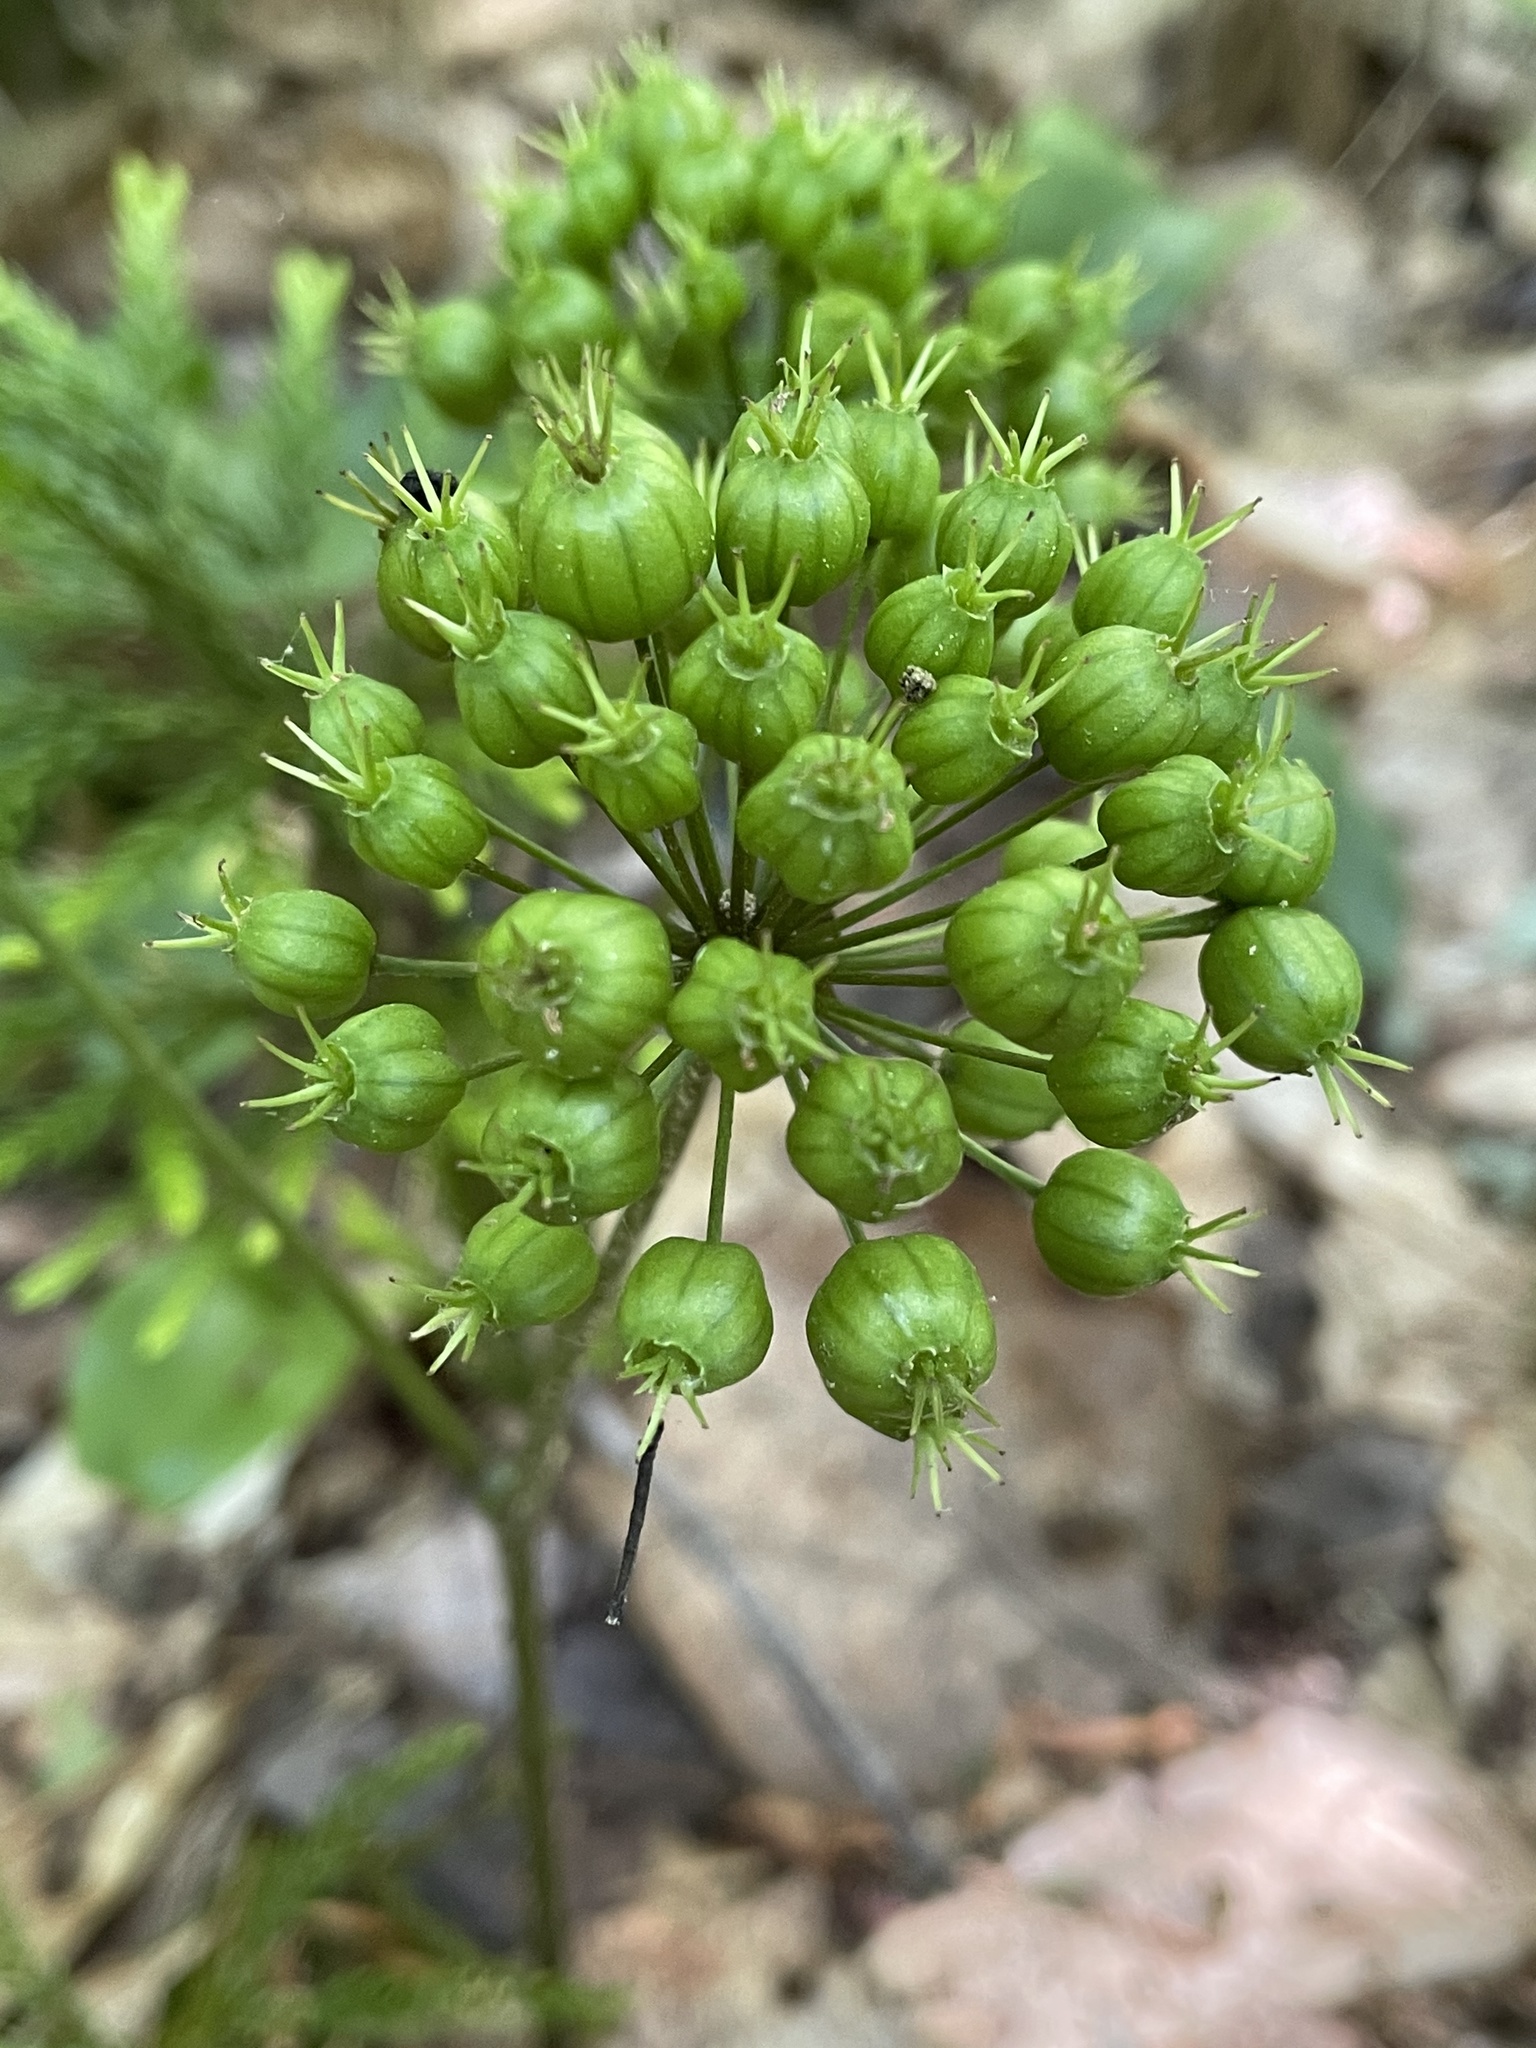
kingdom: Plantae
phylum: Tracheophyta
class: Magnoliopsida
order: Apiales
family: Araliaceae
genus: Aralia
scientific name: Aralia nudicaulis
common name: Wild sarsaparilla
